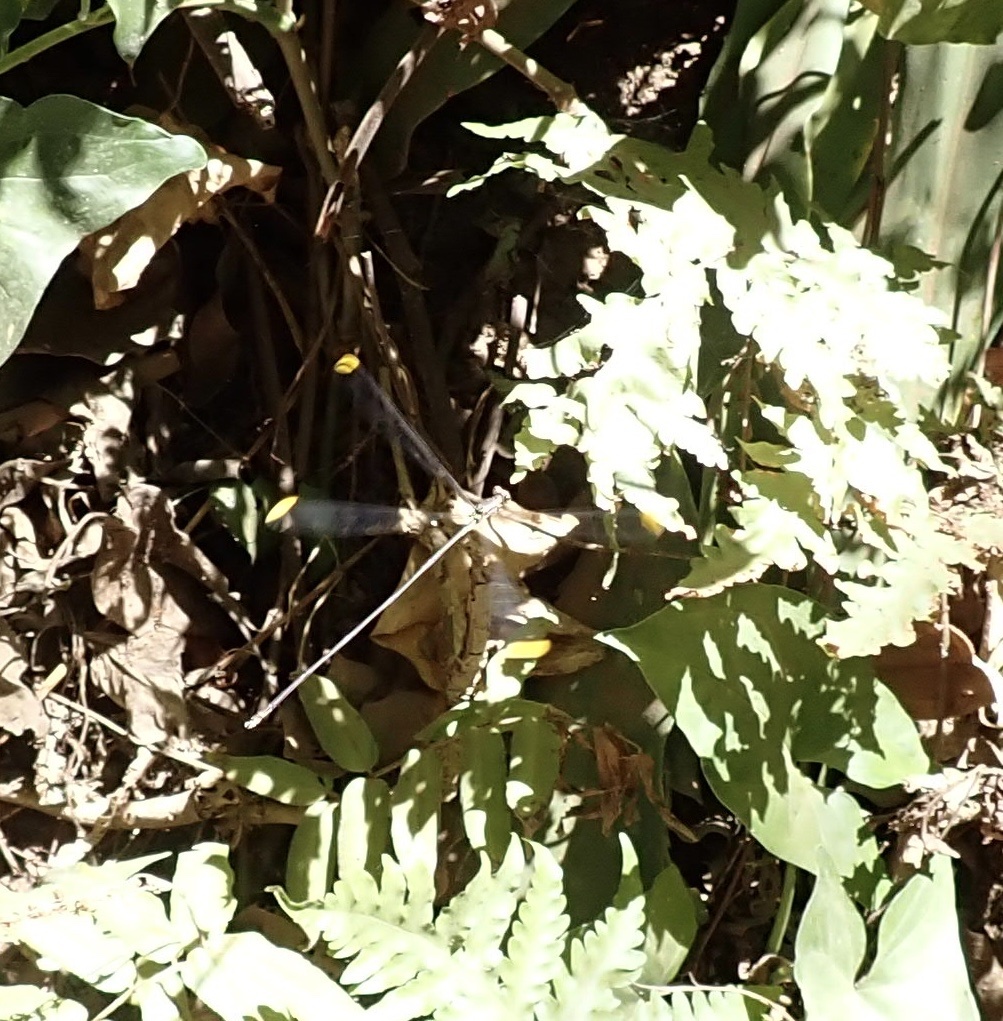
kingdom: Animalia
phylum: Arthropoda
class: Insecta
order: Odonata
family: Coenagrionidae
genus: Mecistogaster
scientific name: Mecistogaster ornata
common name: Ornate helicopter
